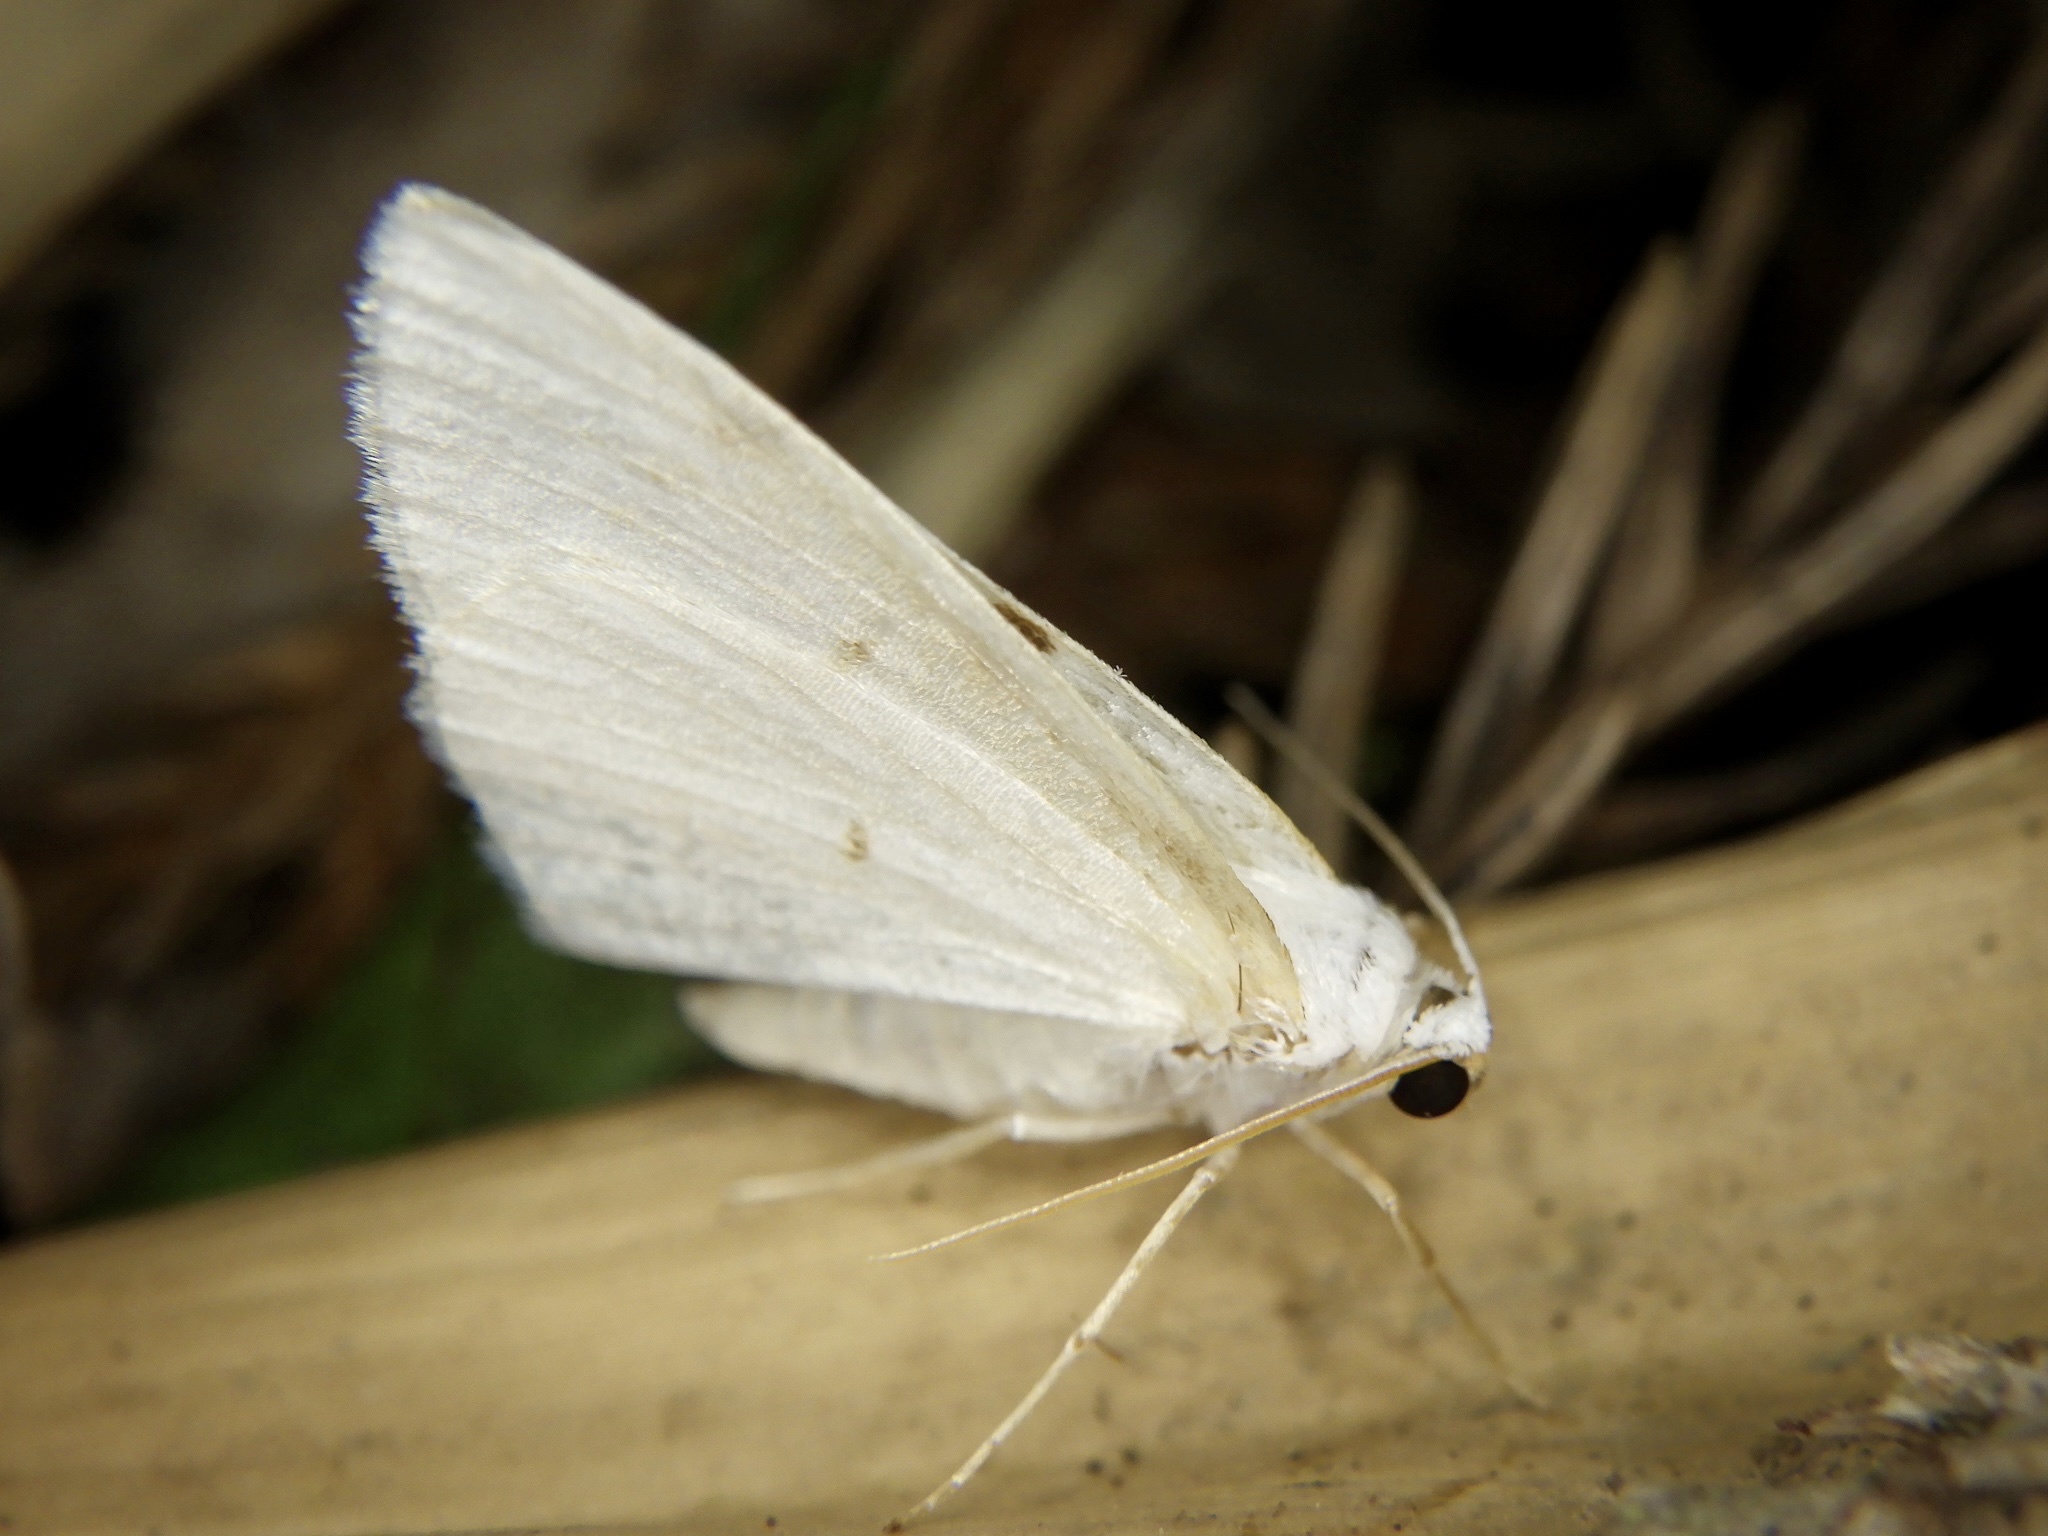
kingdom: Animalia
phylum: Arthropoda
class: Insecta
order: Lepidoptera
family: Geometridae
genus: Lomographa
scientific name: Lomographa bimaculata
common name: White-pinion spotted
